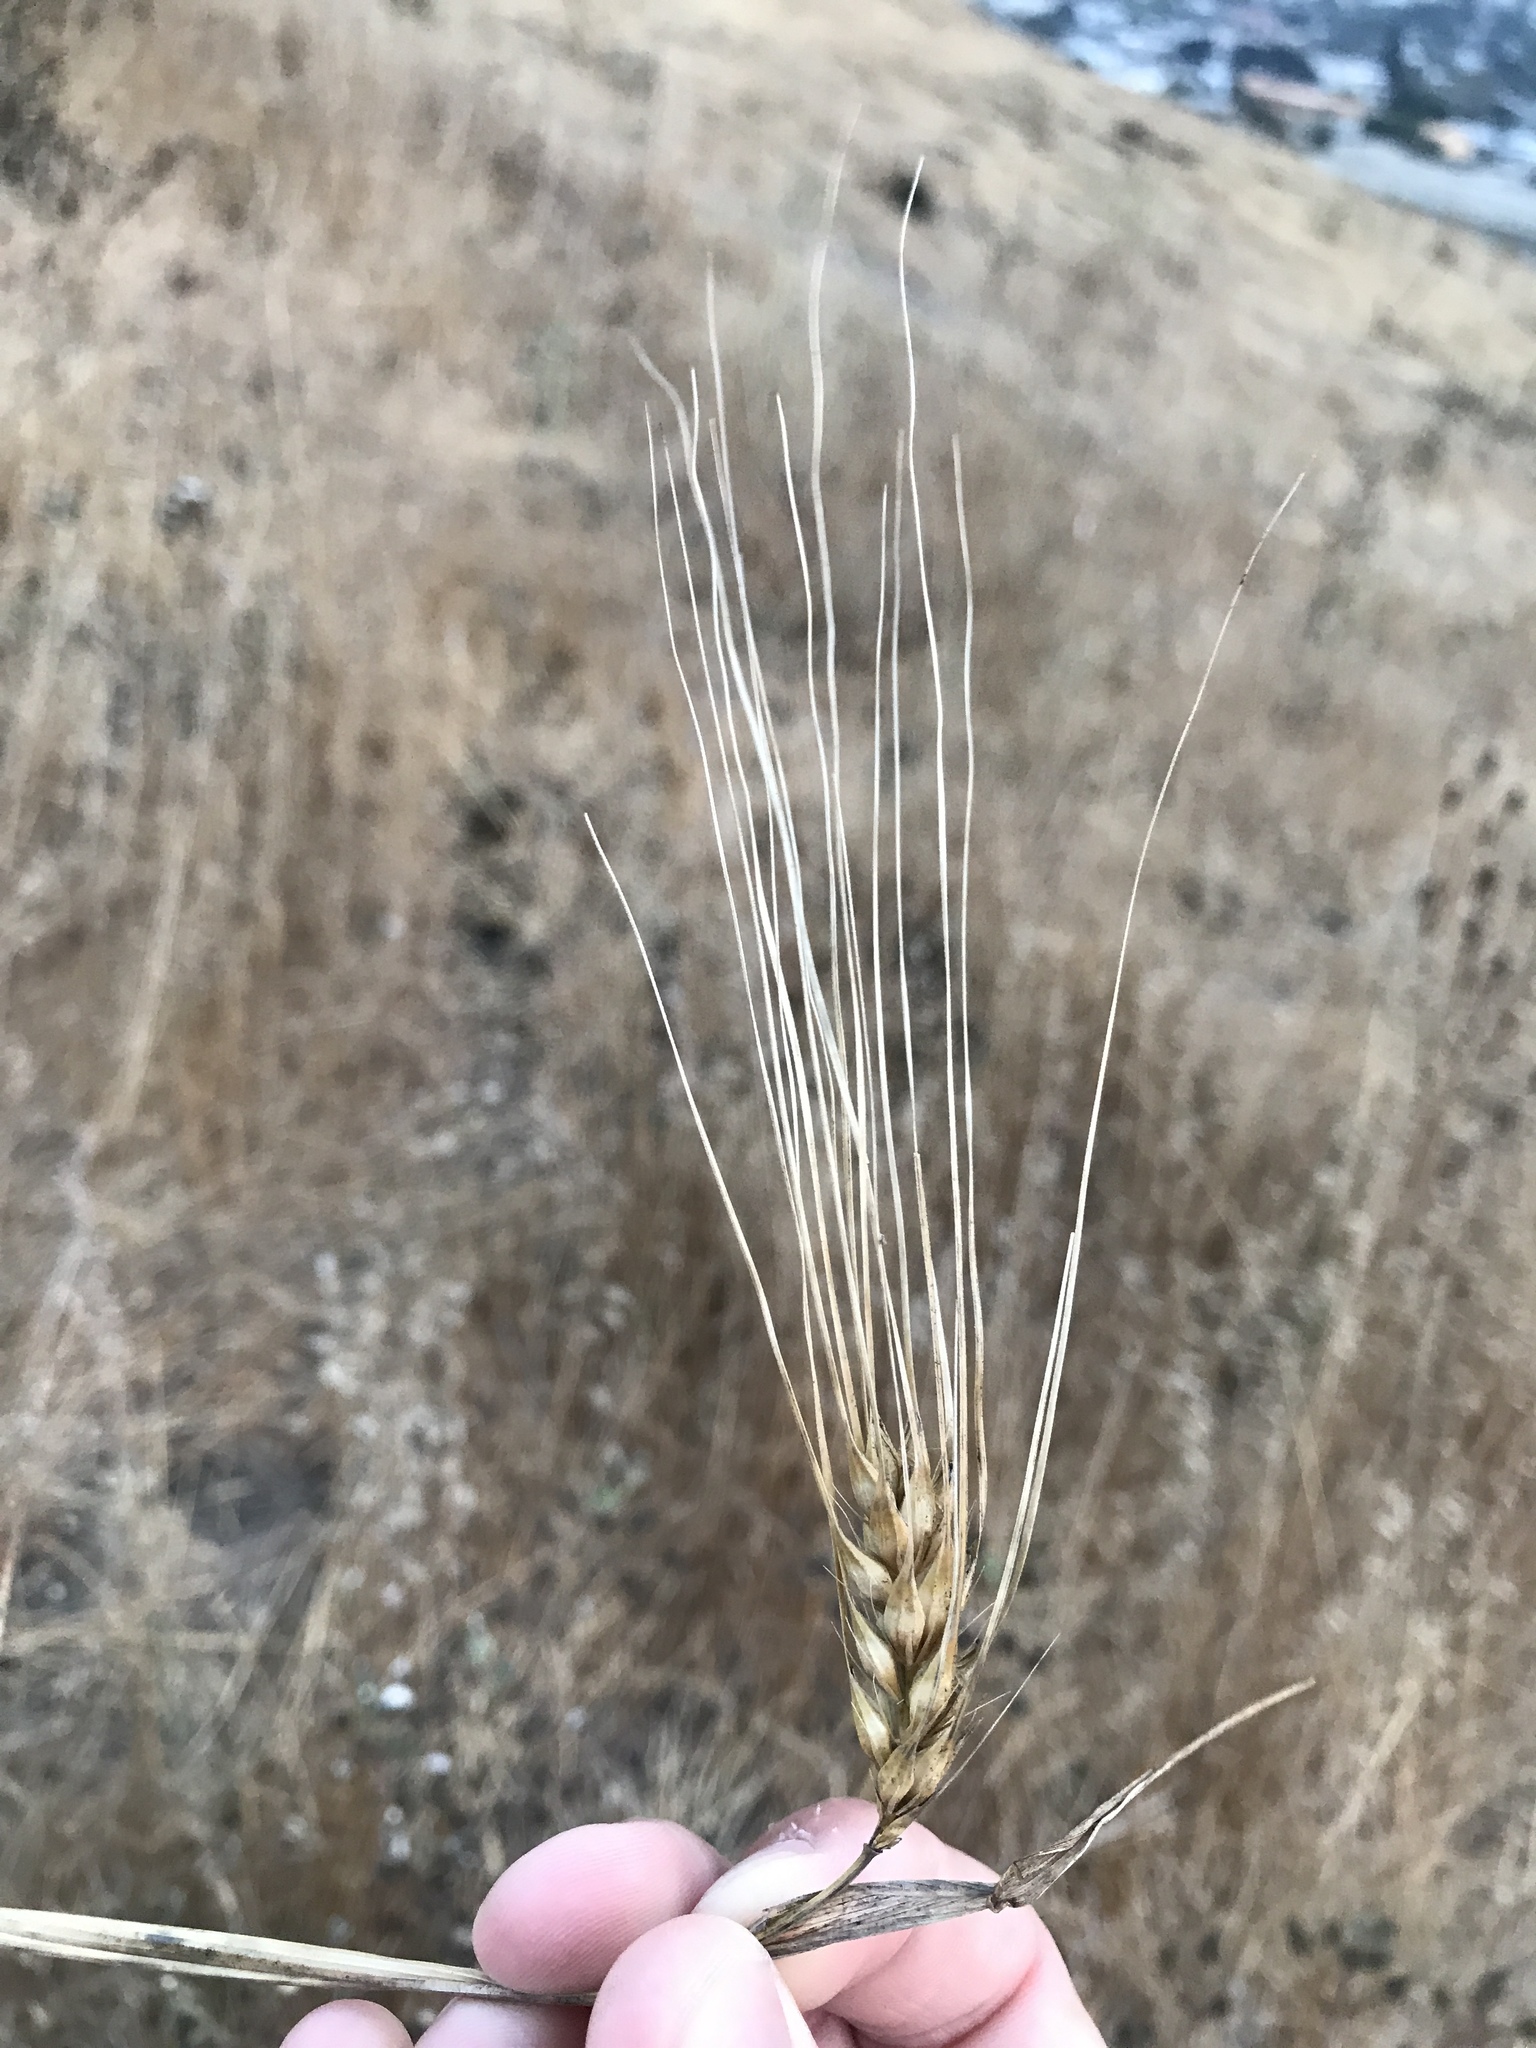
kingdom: Plantae
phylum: Tracheophyta
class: Liliopsida
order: Poales
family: Poaceae
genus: Hordeum
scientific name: Hordeum vulgare
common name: Common barley
